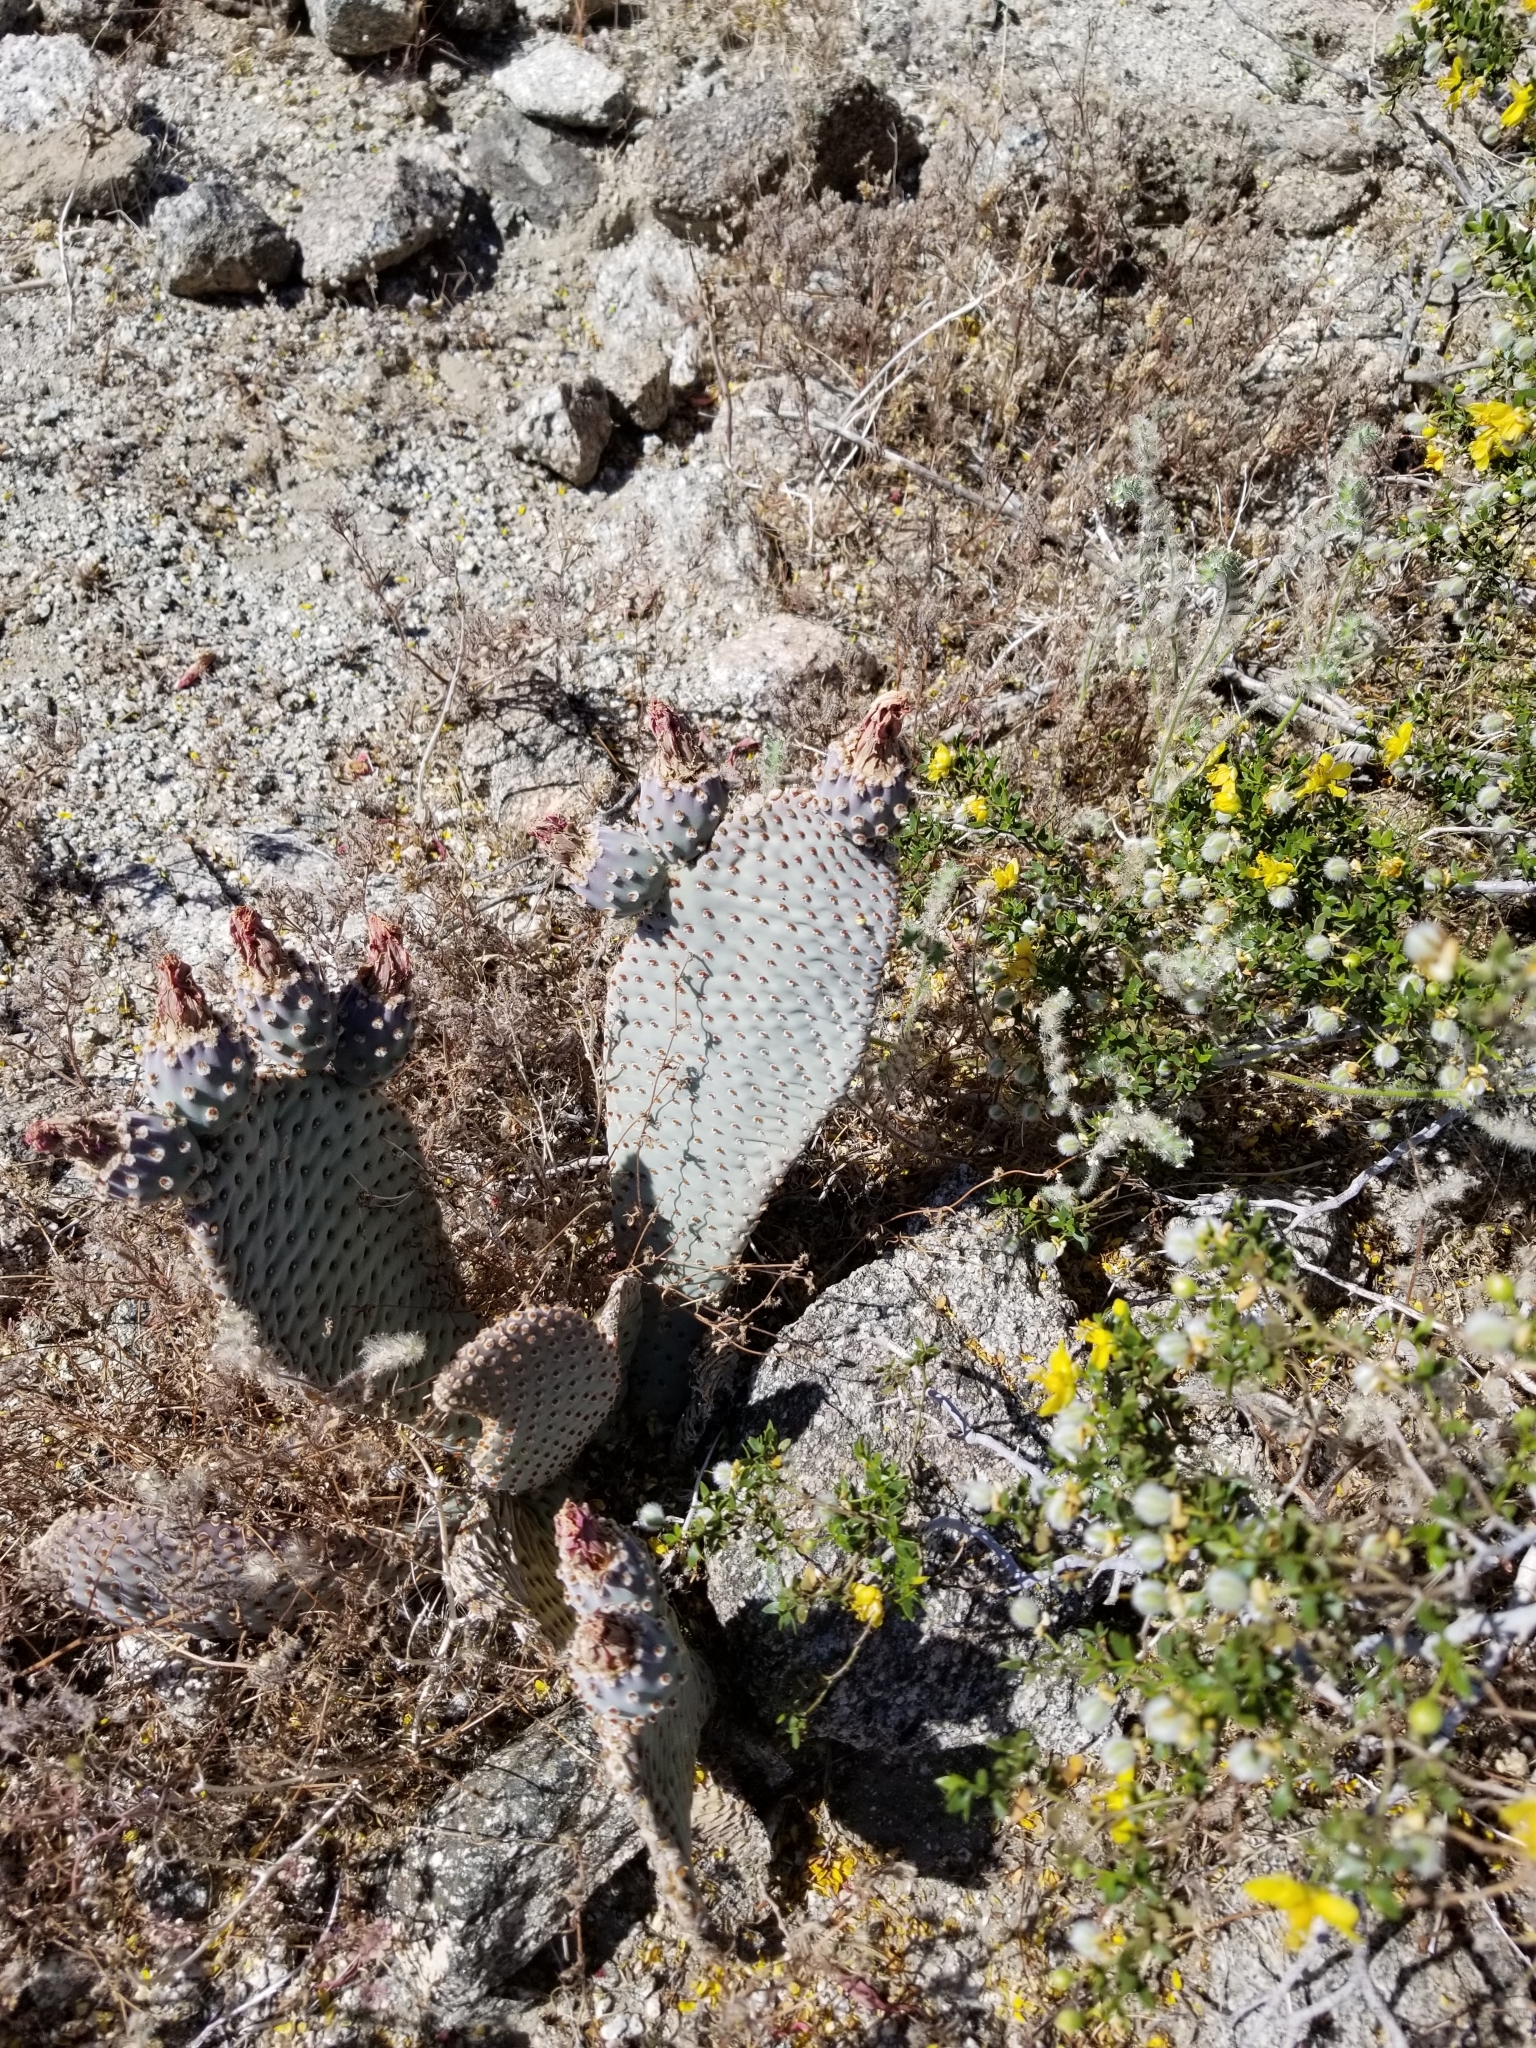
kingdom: Plantae
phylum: Tracheophyta
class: Magnoliopsida
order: Caryophyllales
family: Cactaceae
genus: Opuntia
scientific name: Opuntia basilaris
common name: Beavertail prickly-pear
